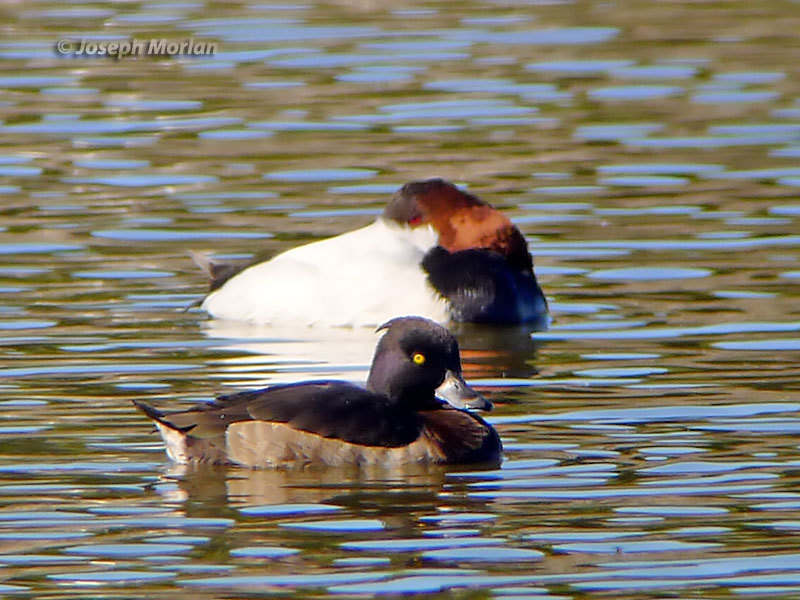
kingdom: Animalia
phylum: Chordata
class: Aves
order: Anseriformes
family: Anatidae
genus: Aythya
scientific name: Aythya fuligula
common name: Tufted duck
